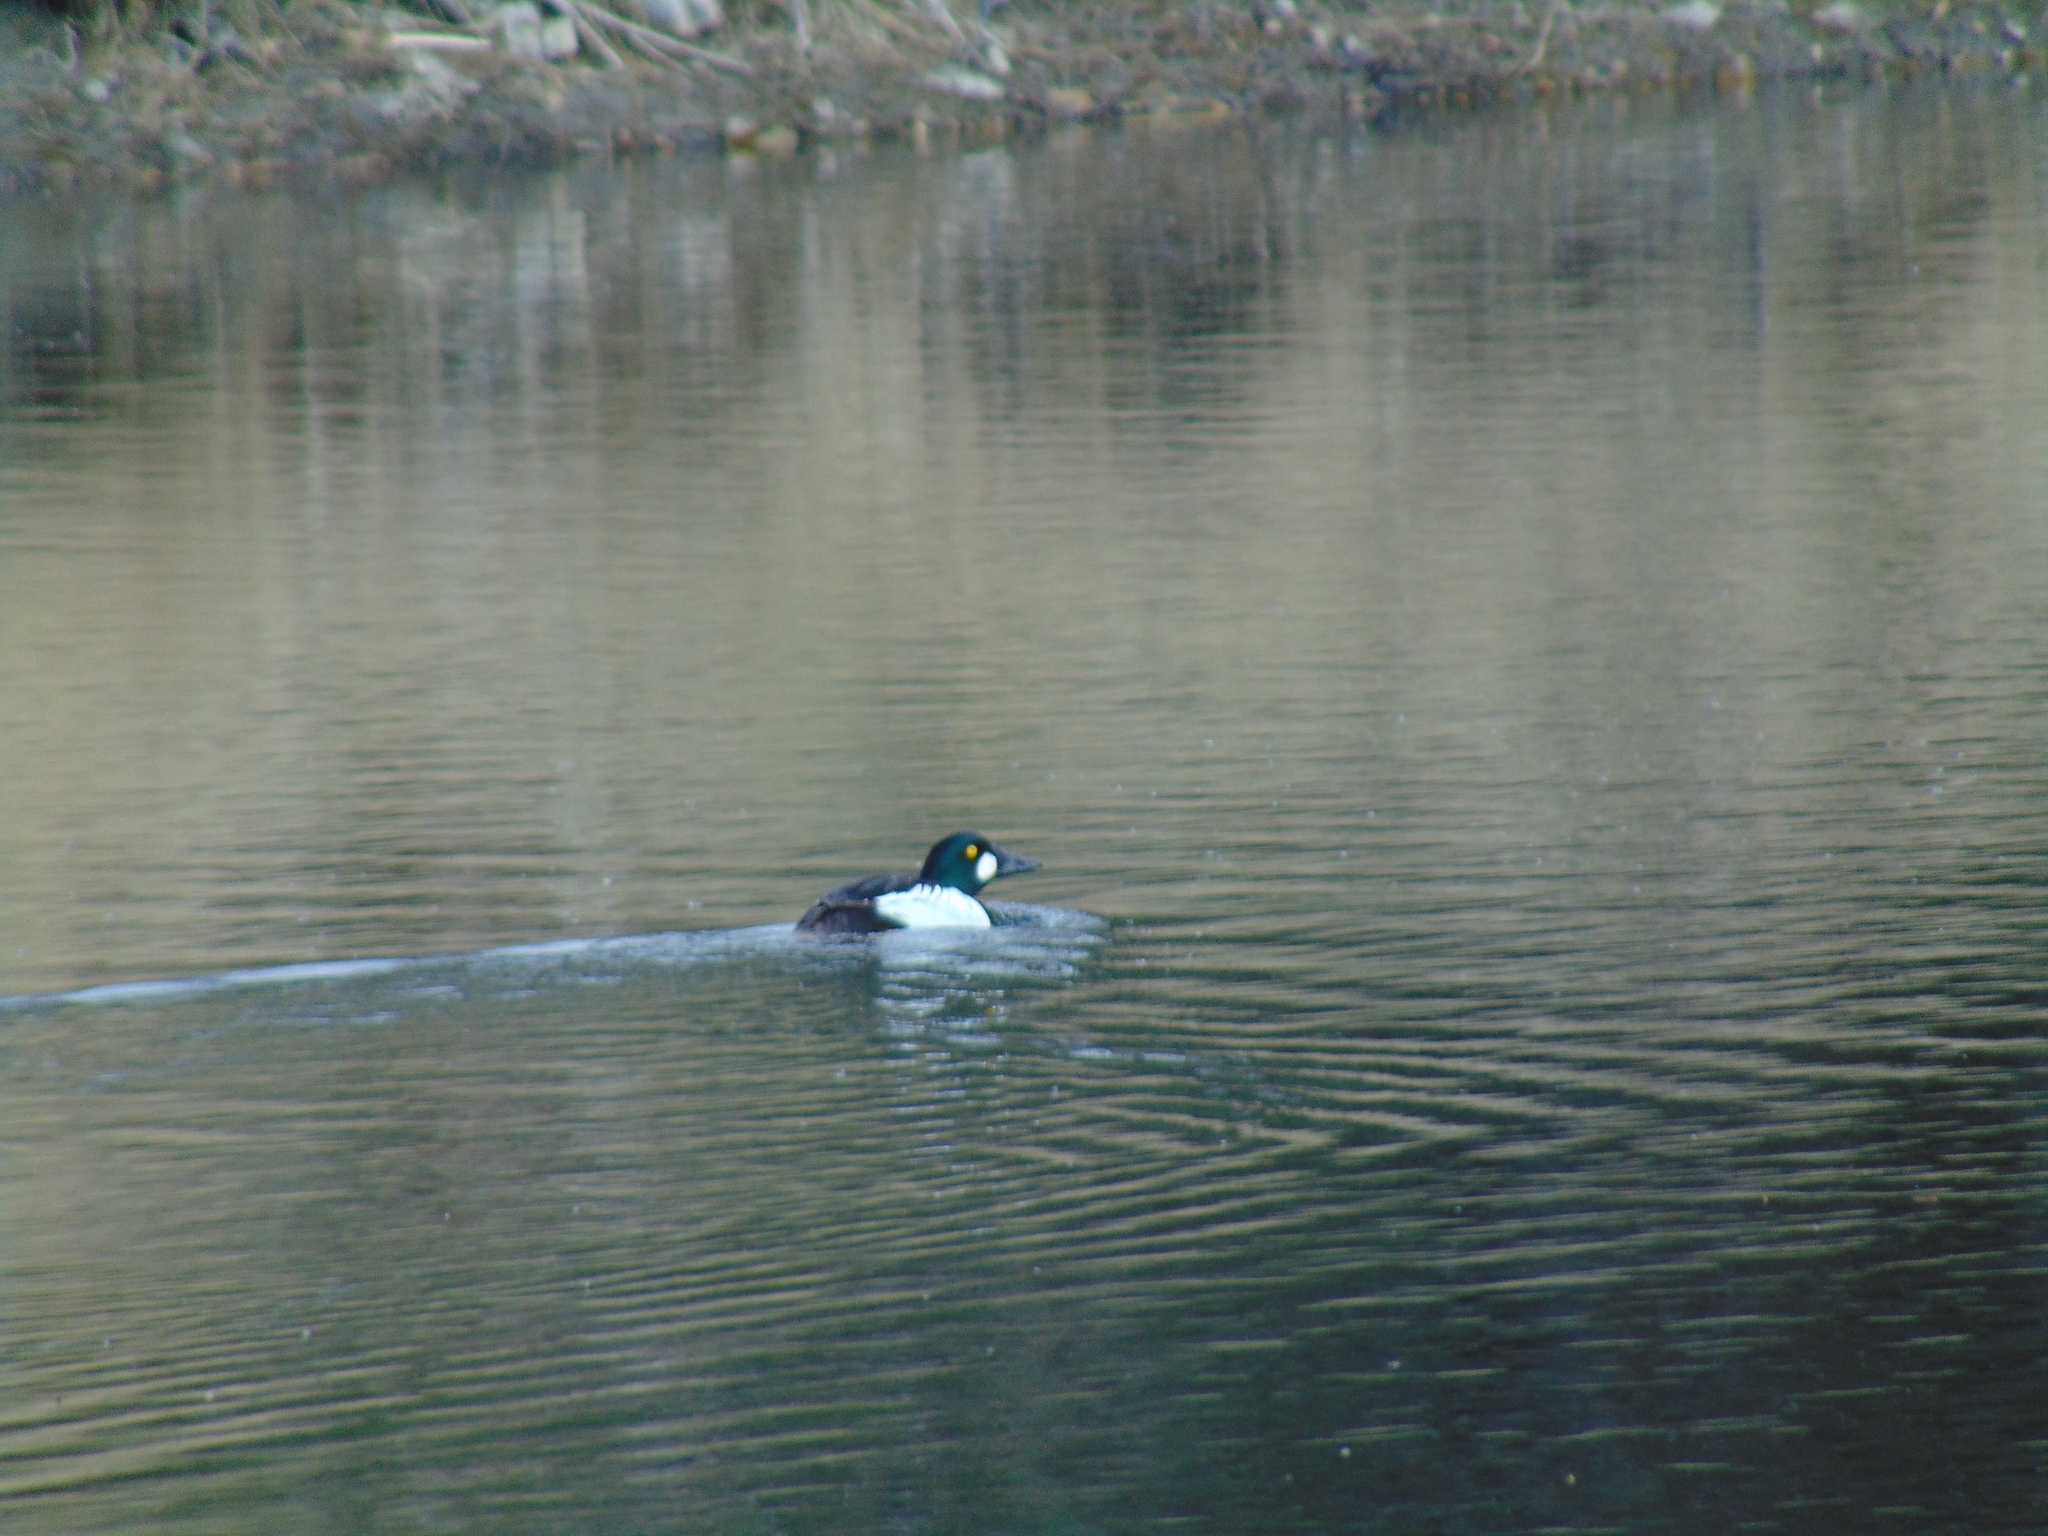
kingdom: Animalia
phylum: Chordata
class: Aves
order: Anseriformes
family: Anatidae
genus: Bucephala
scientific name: Bucephala clangula
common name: Common goldeneye
